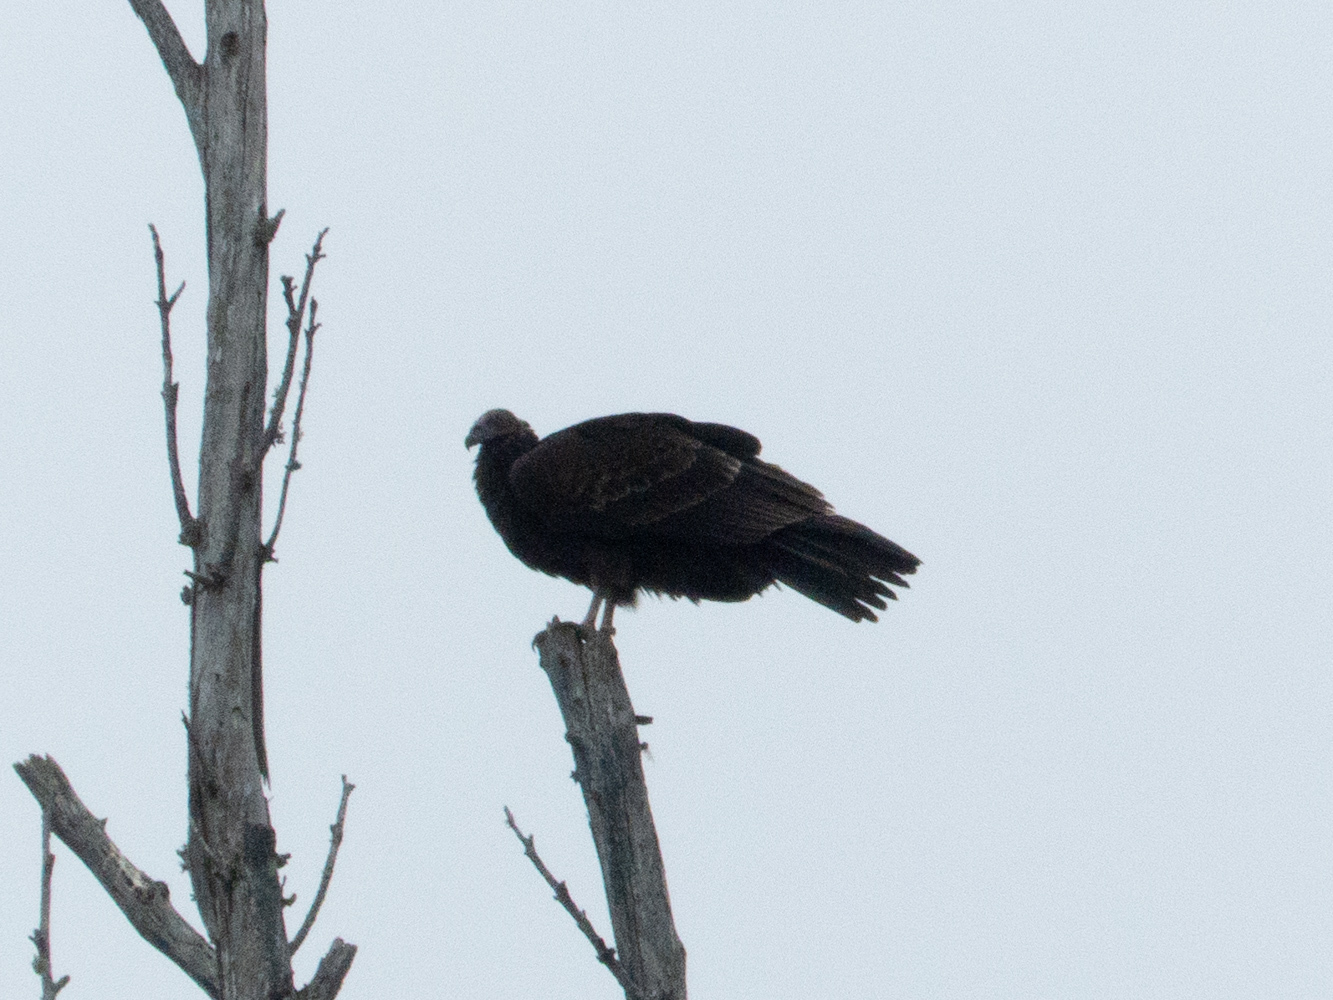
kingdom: Animalia
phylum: Chordata
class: Aves
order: Accipitriformes
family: Cathartidae
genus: Cathartes
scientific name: Cathartes aura
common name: Turkey vulture
